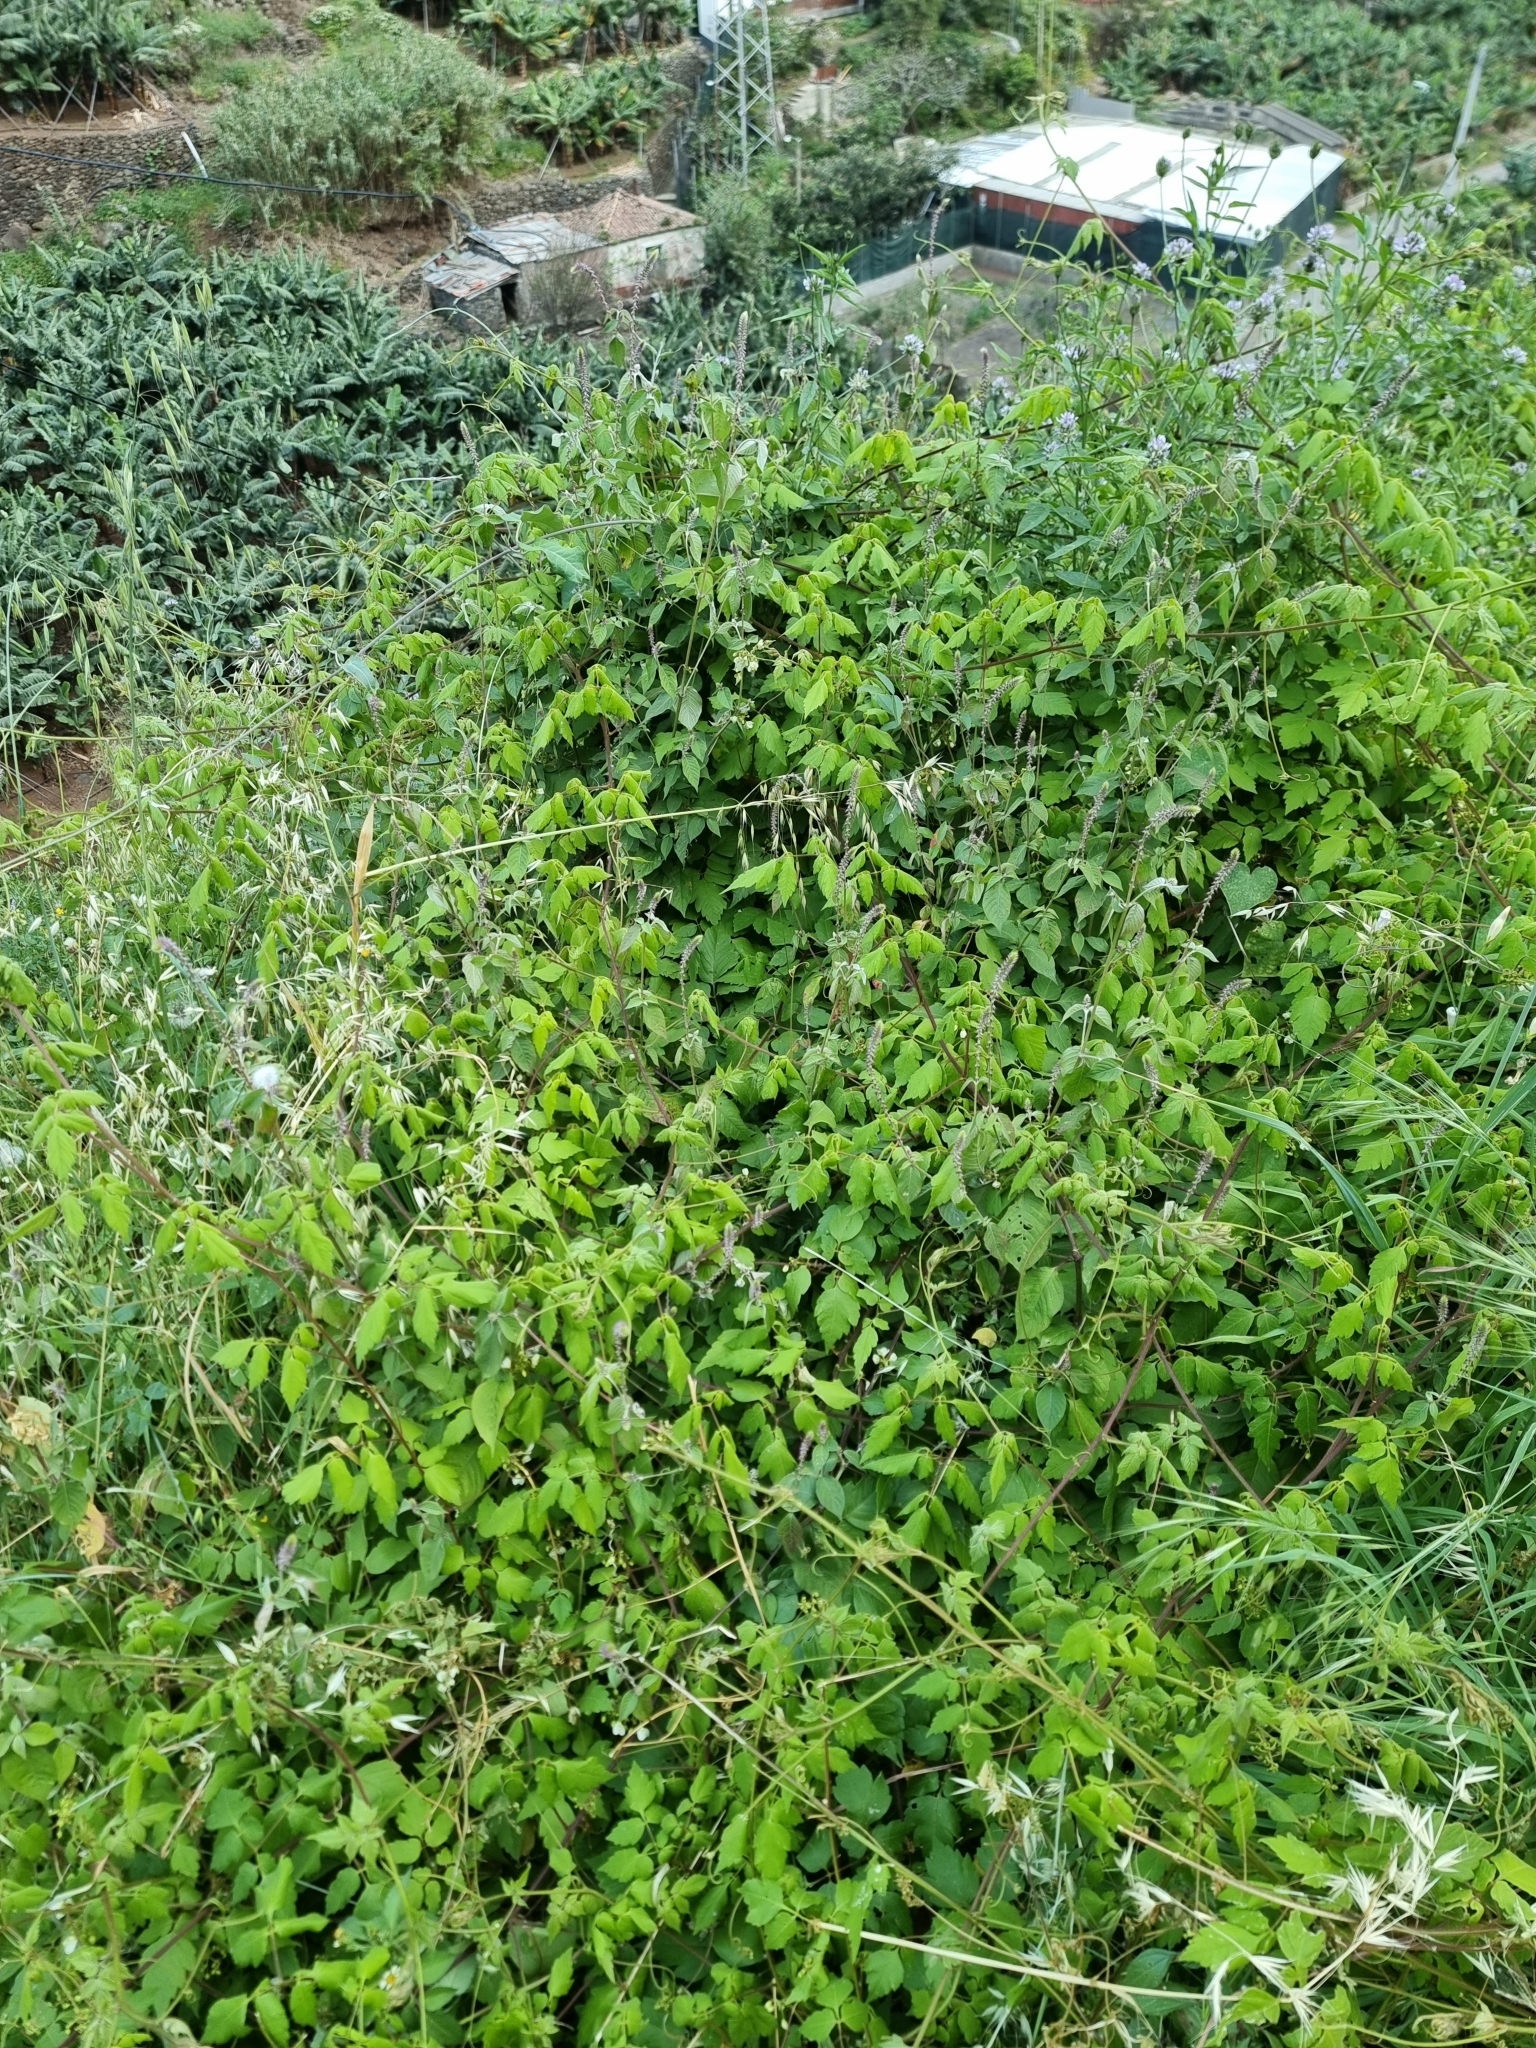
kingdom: Plantae
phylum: Tracheophyta
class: Magnoliopsida
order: Sapindales
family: Sapindaceae
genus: Cardiospermum
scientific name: Cardiospermum grandiflorum
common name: Balloon vine
